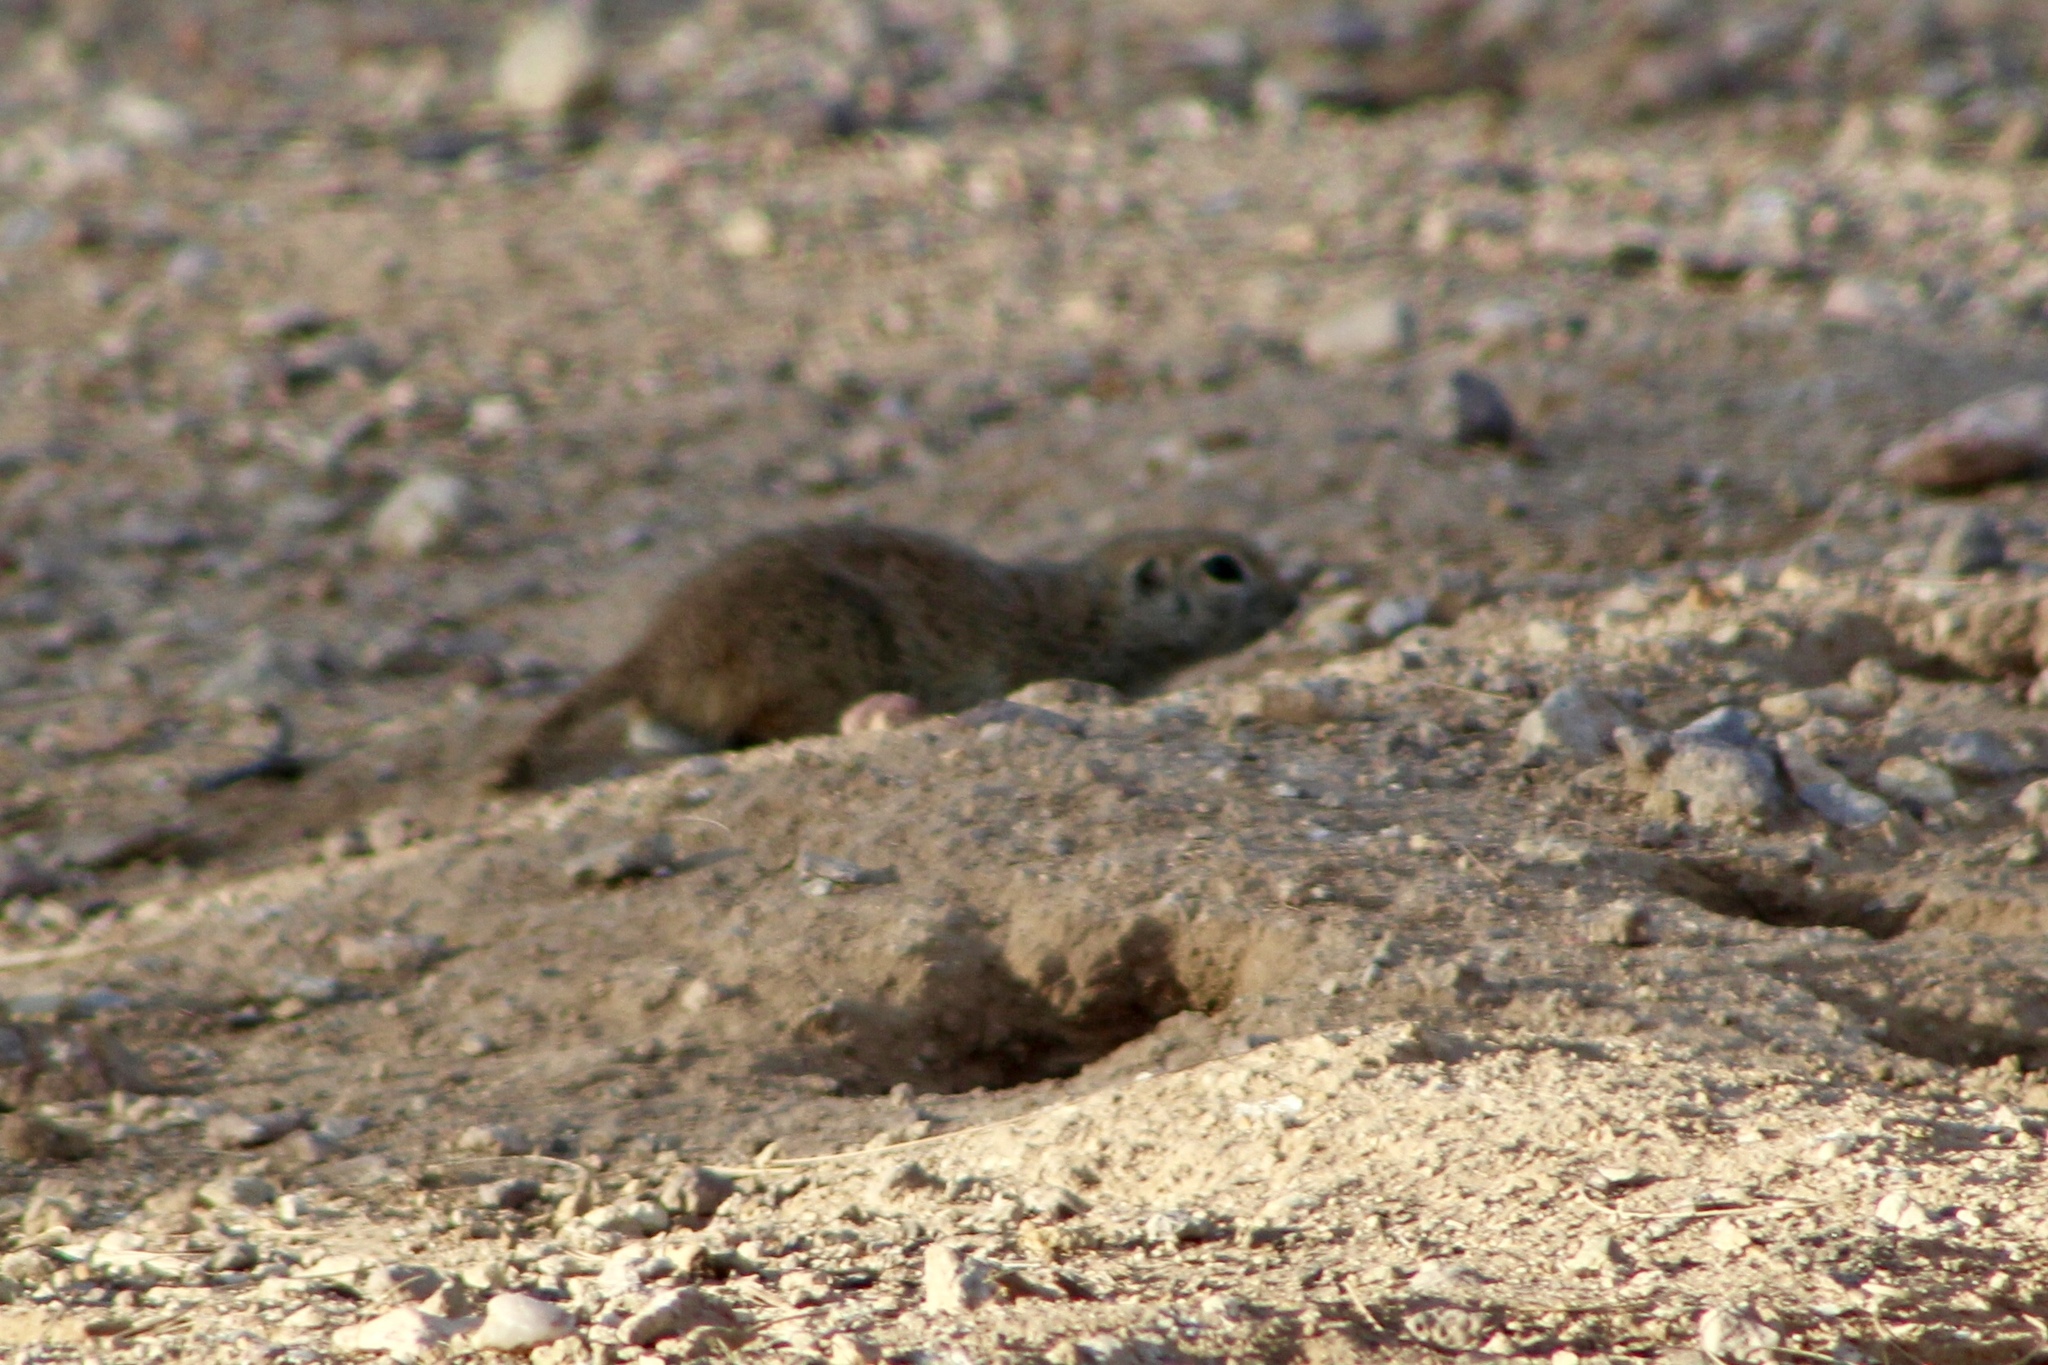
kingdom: Animalia
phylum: Chordata
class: Mammalia
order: Rodentia
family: Sciuridae
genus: Xerospermophilus
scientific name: Xerospermophilus tereticaudus
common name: Round-tailed ground squirrel
